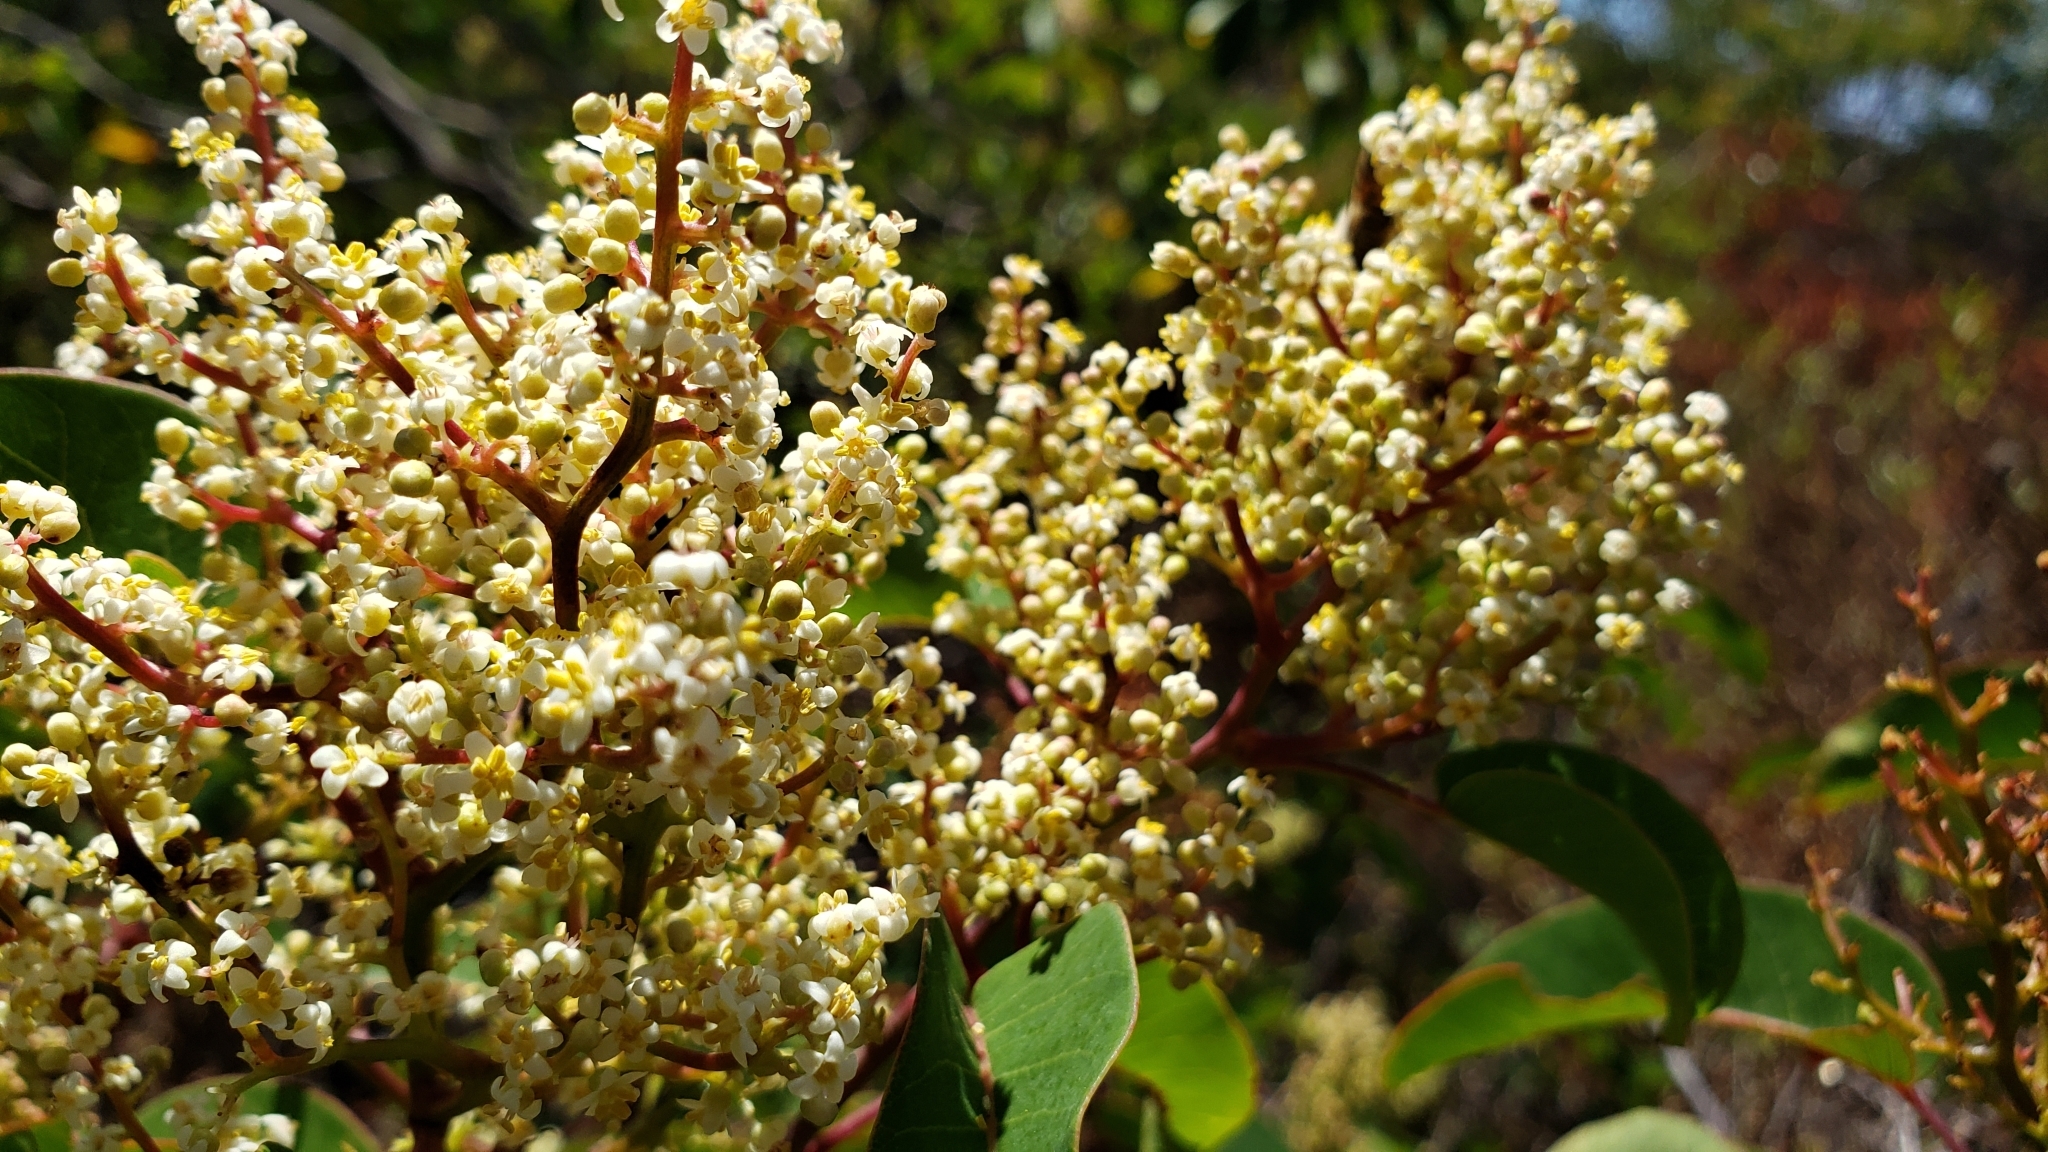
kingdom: Plantae
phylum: Tracheophyta
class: Magnoliopsida
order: Sapindales
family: Anacardiaceae
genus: Malosma
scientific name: Malosma laurina
